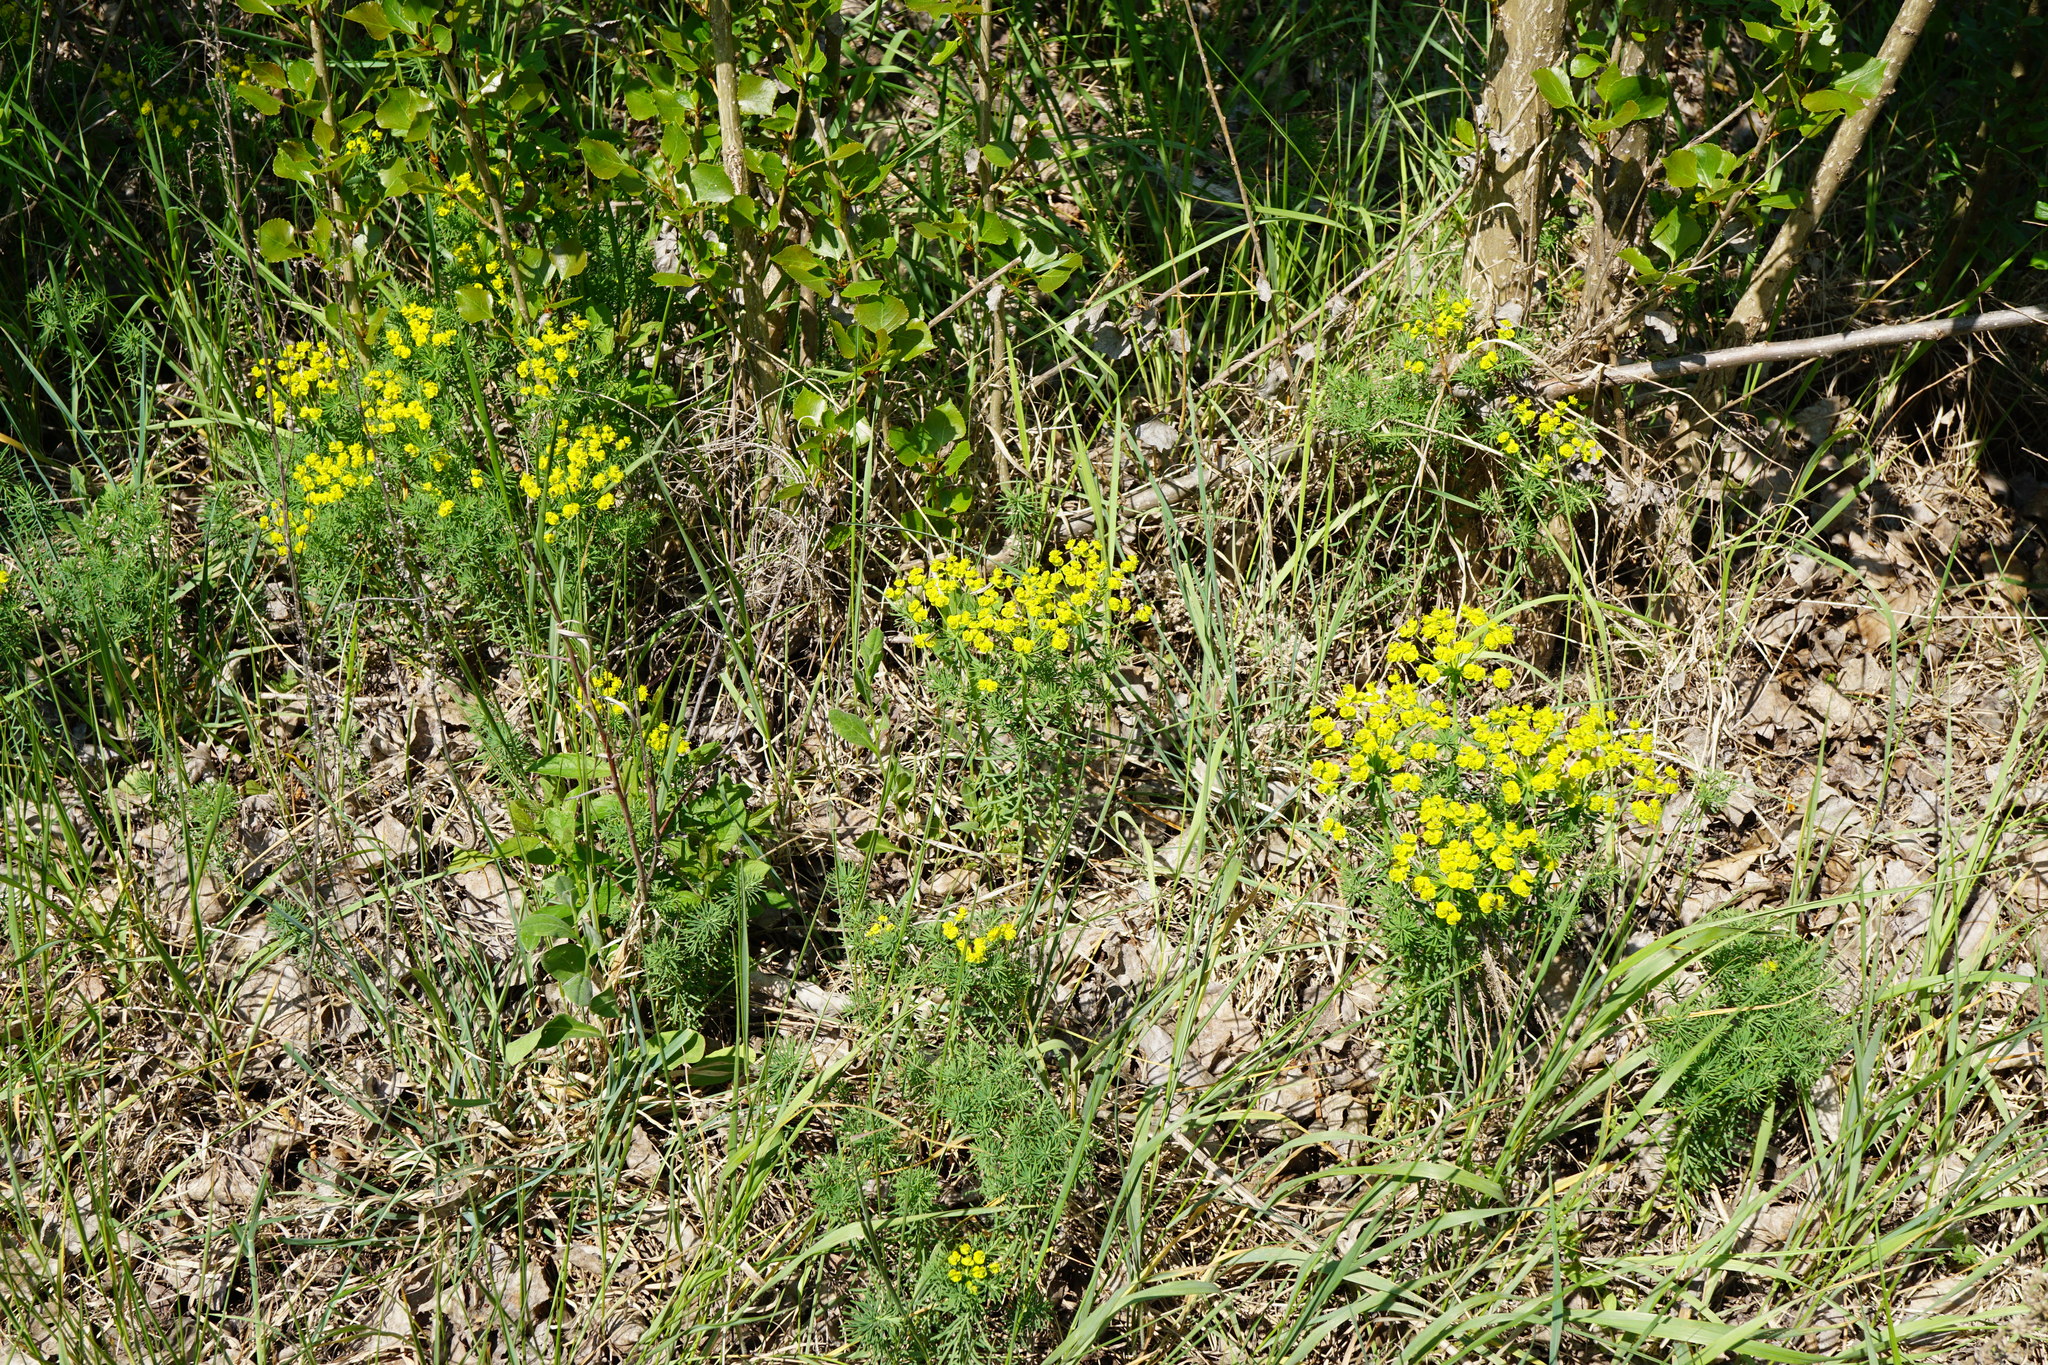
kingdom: Plantae
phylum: Tracheophyta
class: Magnoliopsida
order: Malpighiales
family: Euphorbiaceae
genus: Euphorbia
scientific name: Euphorbia cyparissias
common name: Cypress spurge
